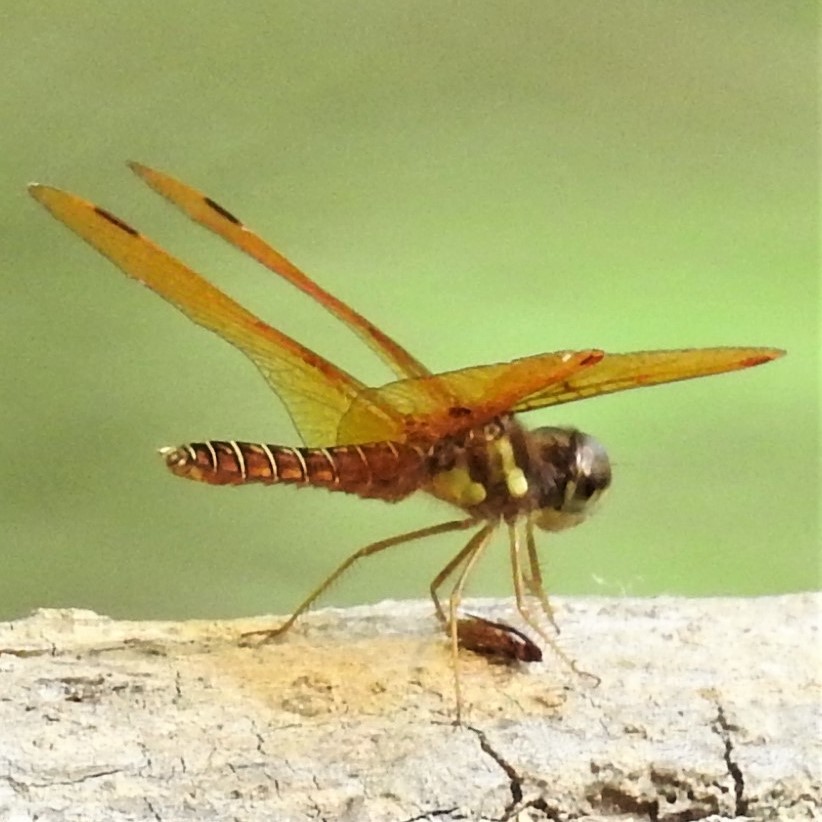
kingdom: Animalia
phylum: Arthropoda
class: Insecta
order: Odonata
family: Libellulidae
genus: Perithemis
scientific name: Perithemis tenera
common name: Eastern amberwing
